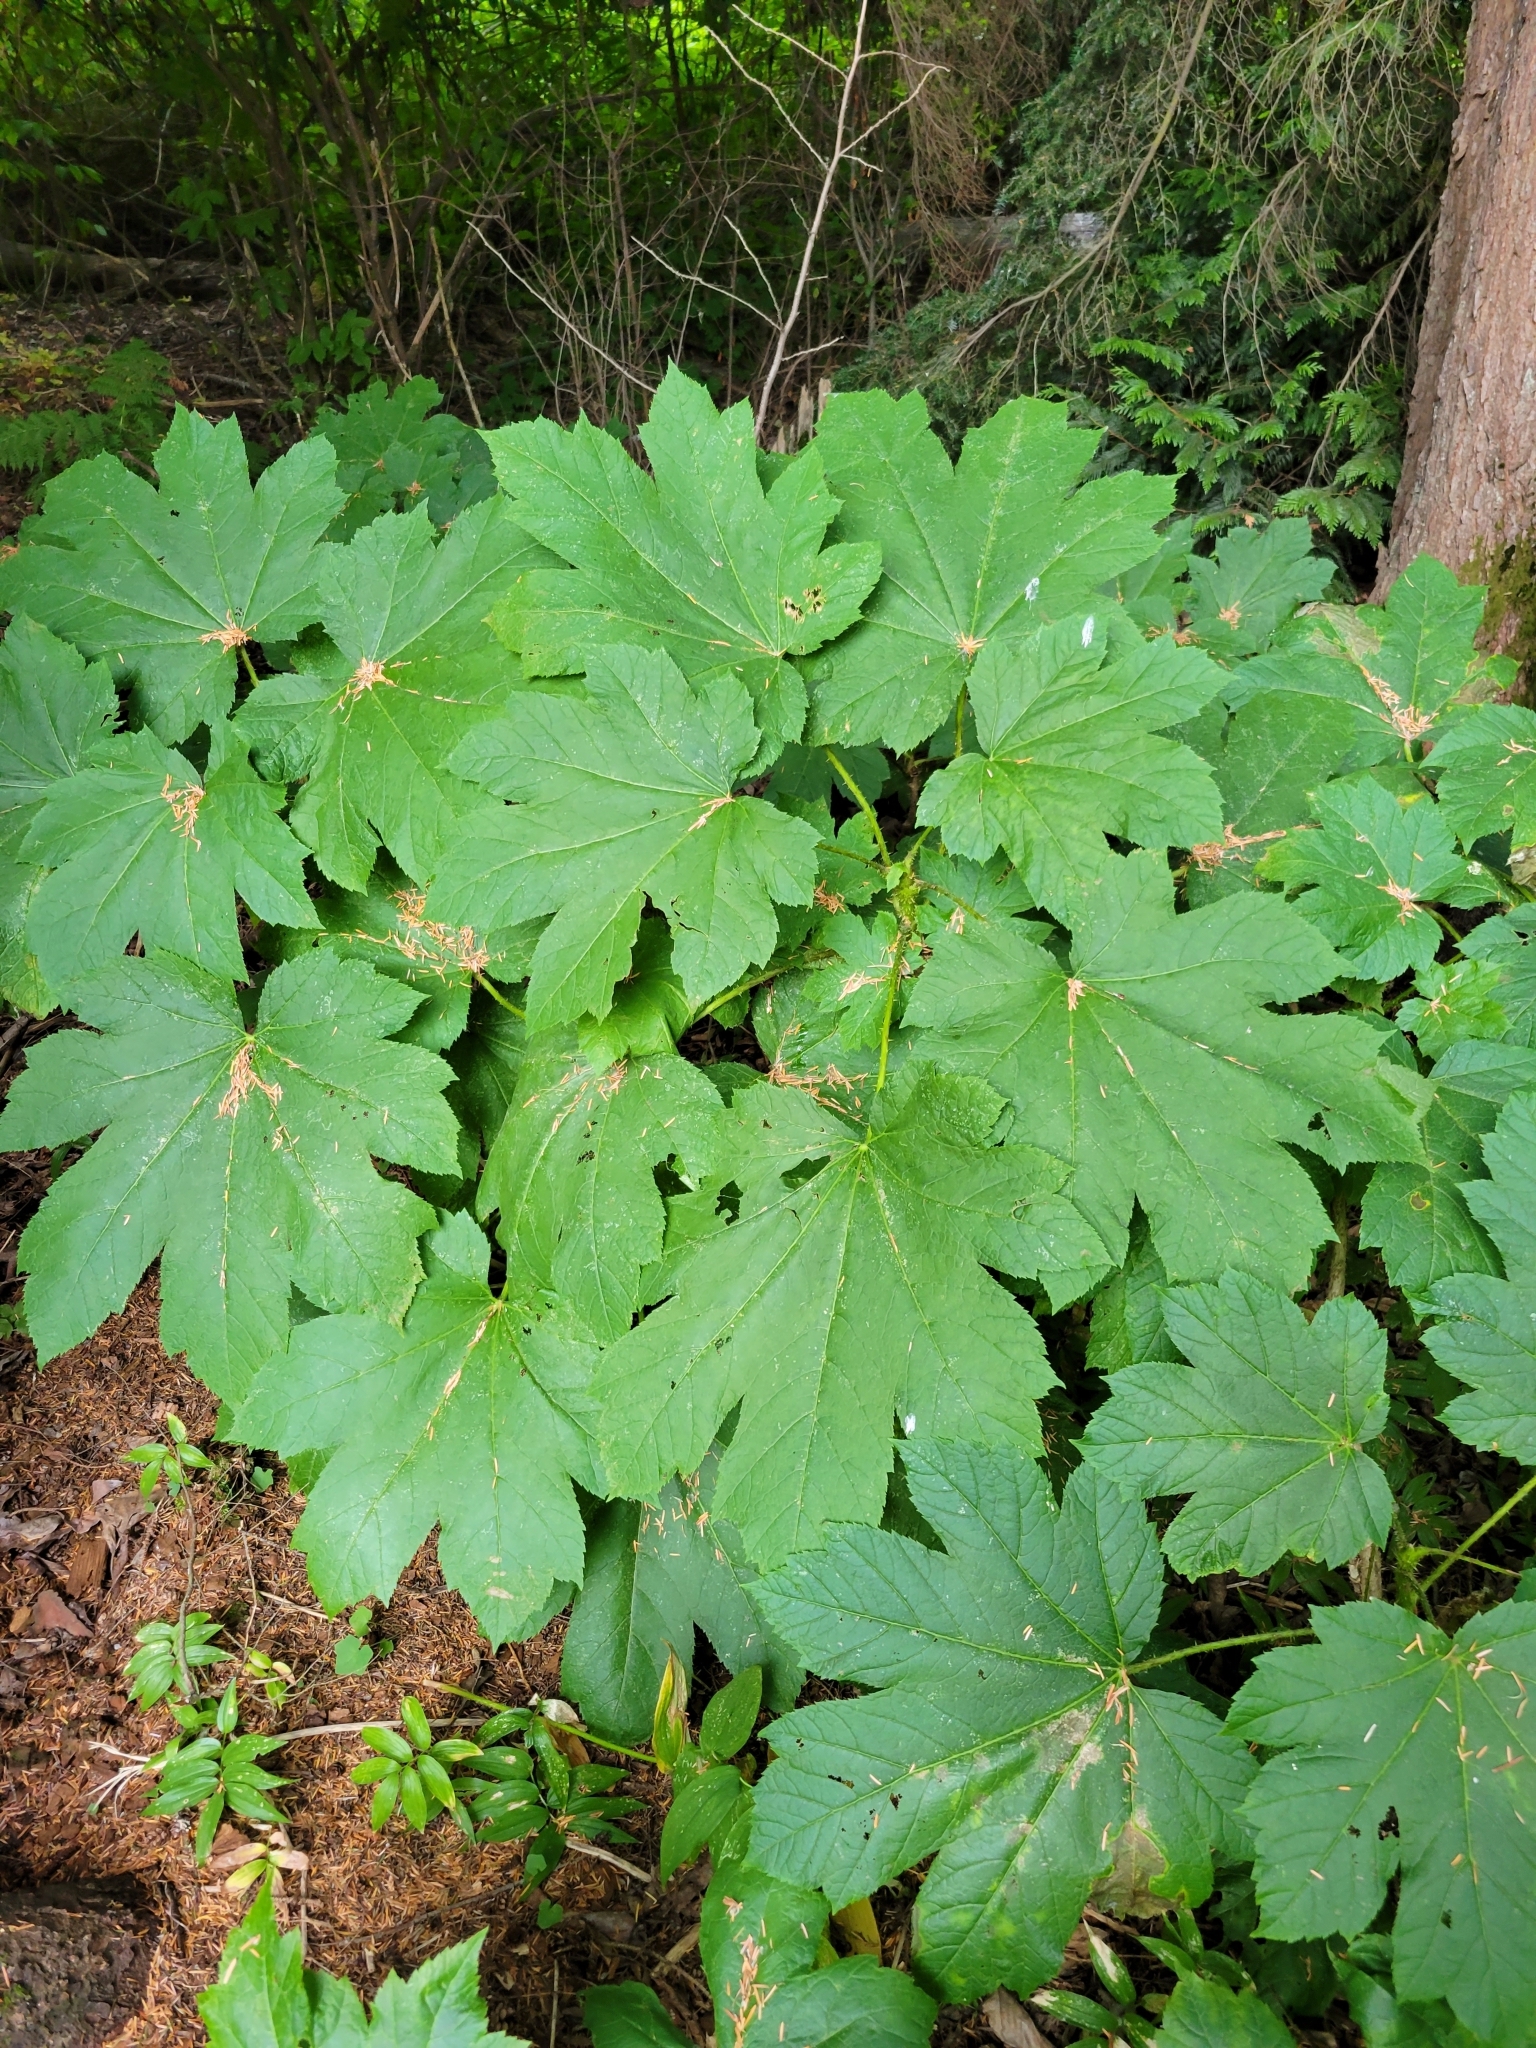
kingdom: Plantae
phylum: Tracheophyta
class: Magnoliopsida
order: Apiales
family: Araliaceae
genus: Oplopanax
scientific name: Oplopanax horridus
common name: Devil's walking-stick
